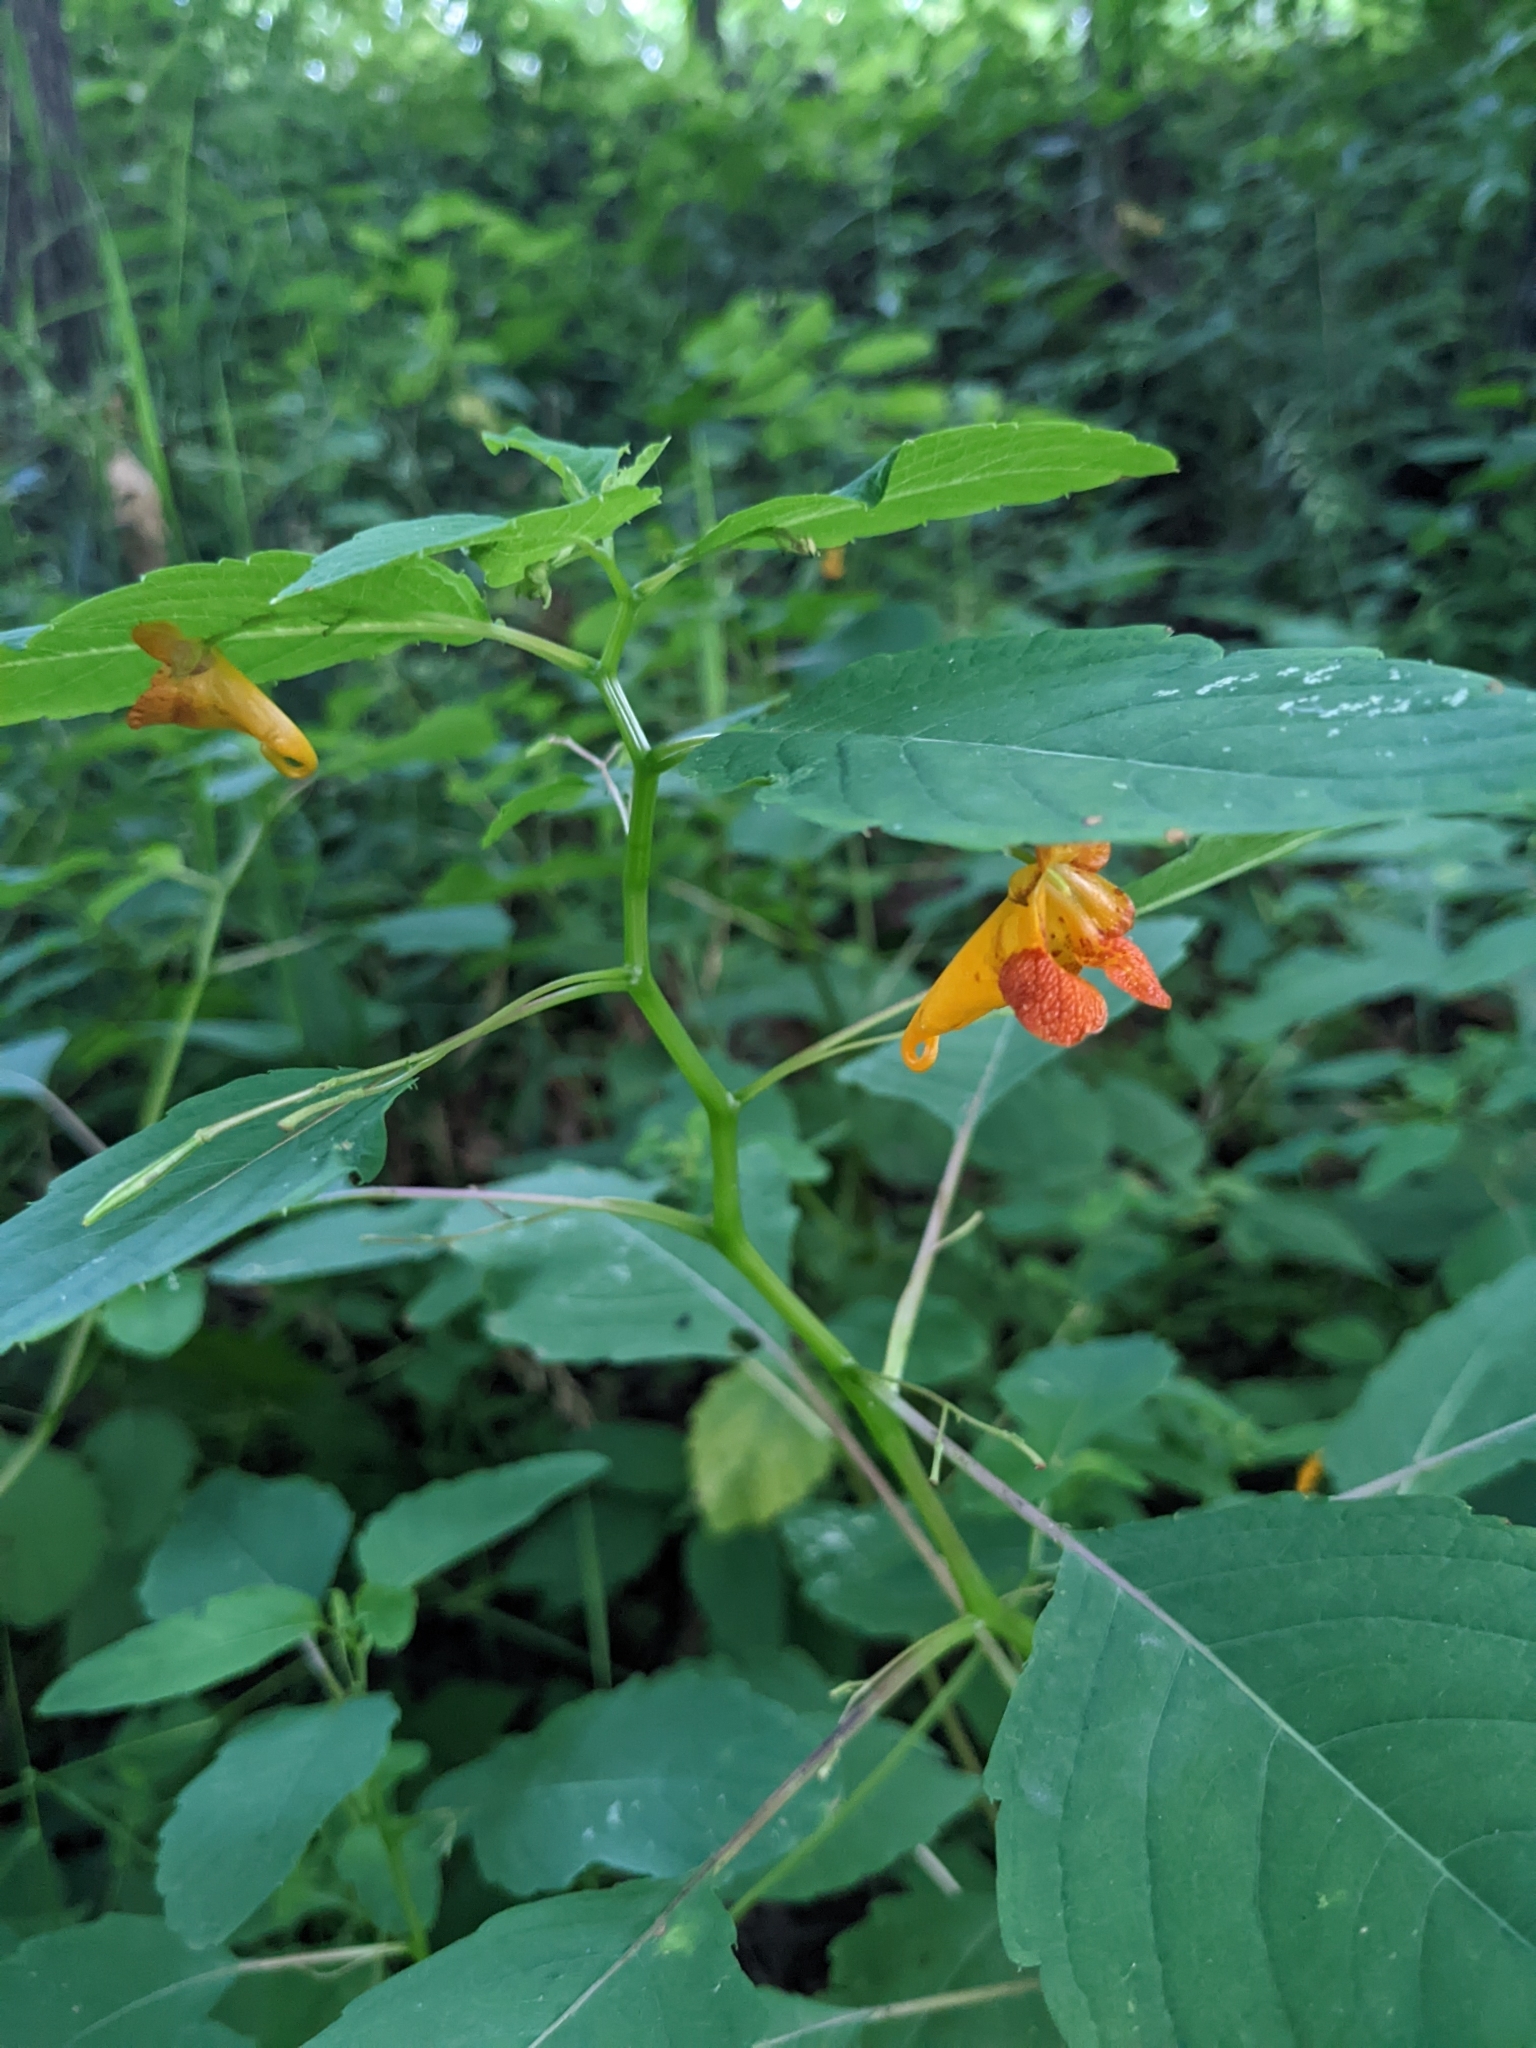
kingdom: Plantae
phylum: Tracheophyta
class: Magnoliopsida
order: Ericales
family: Balsaminaceae
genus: Impatiens
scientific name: Impatiens capensis
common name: Orange balsam
